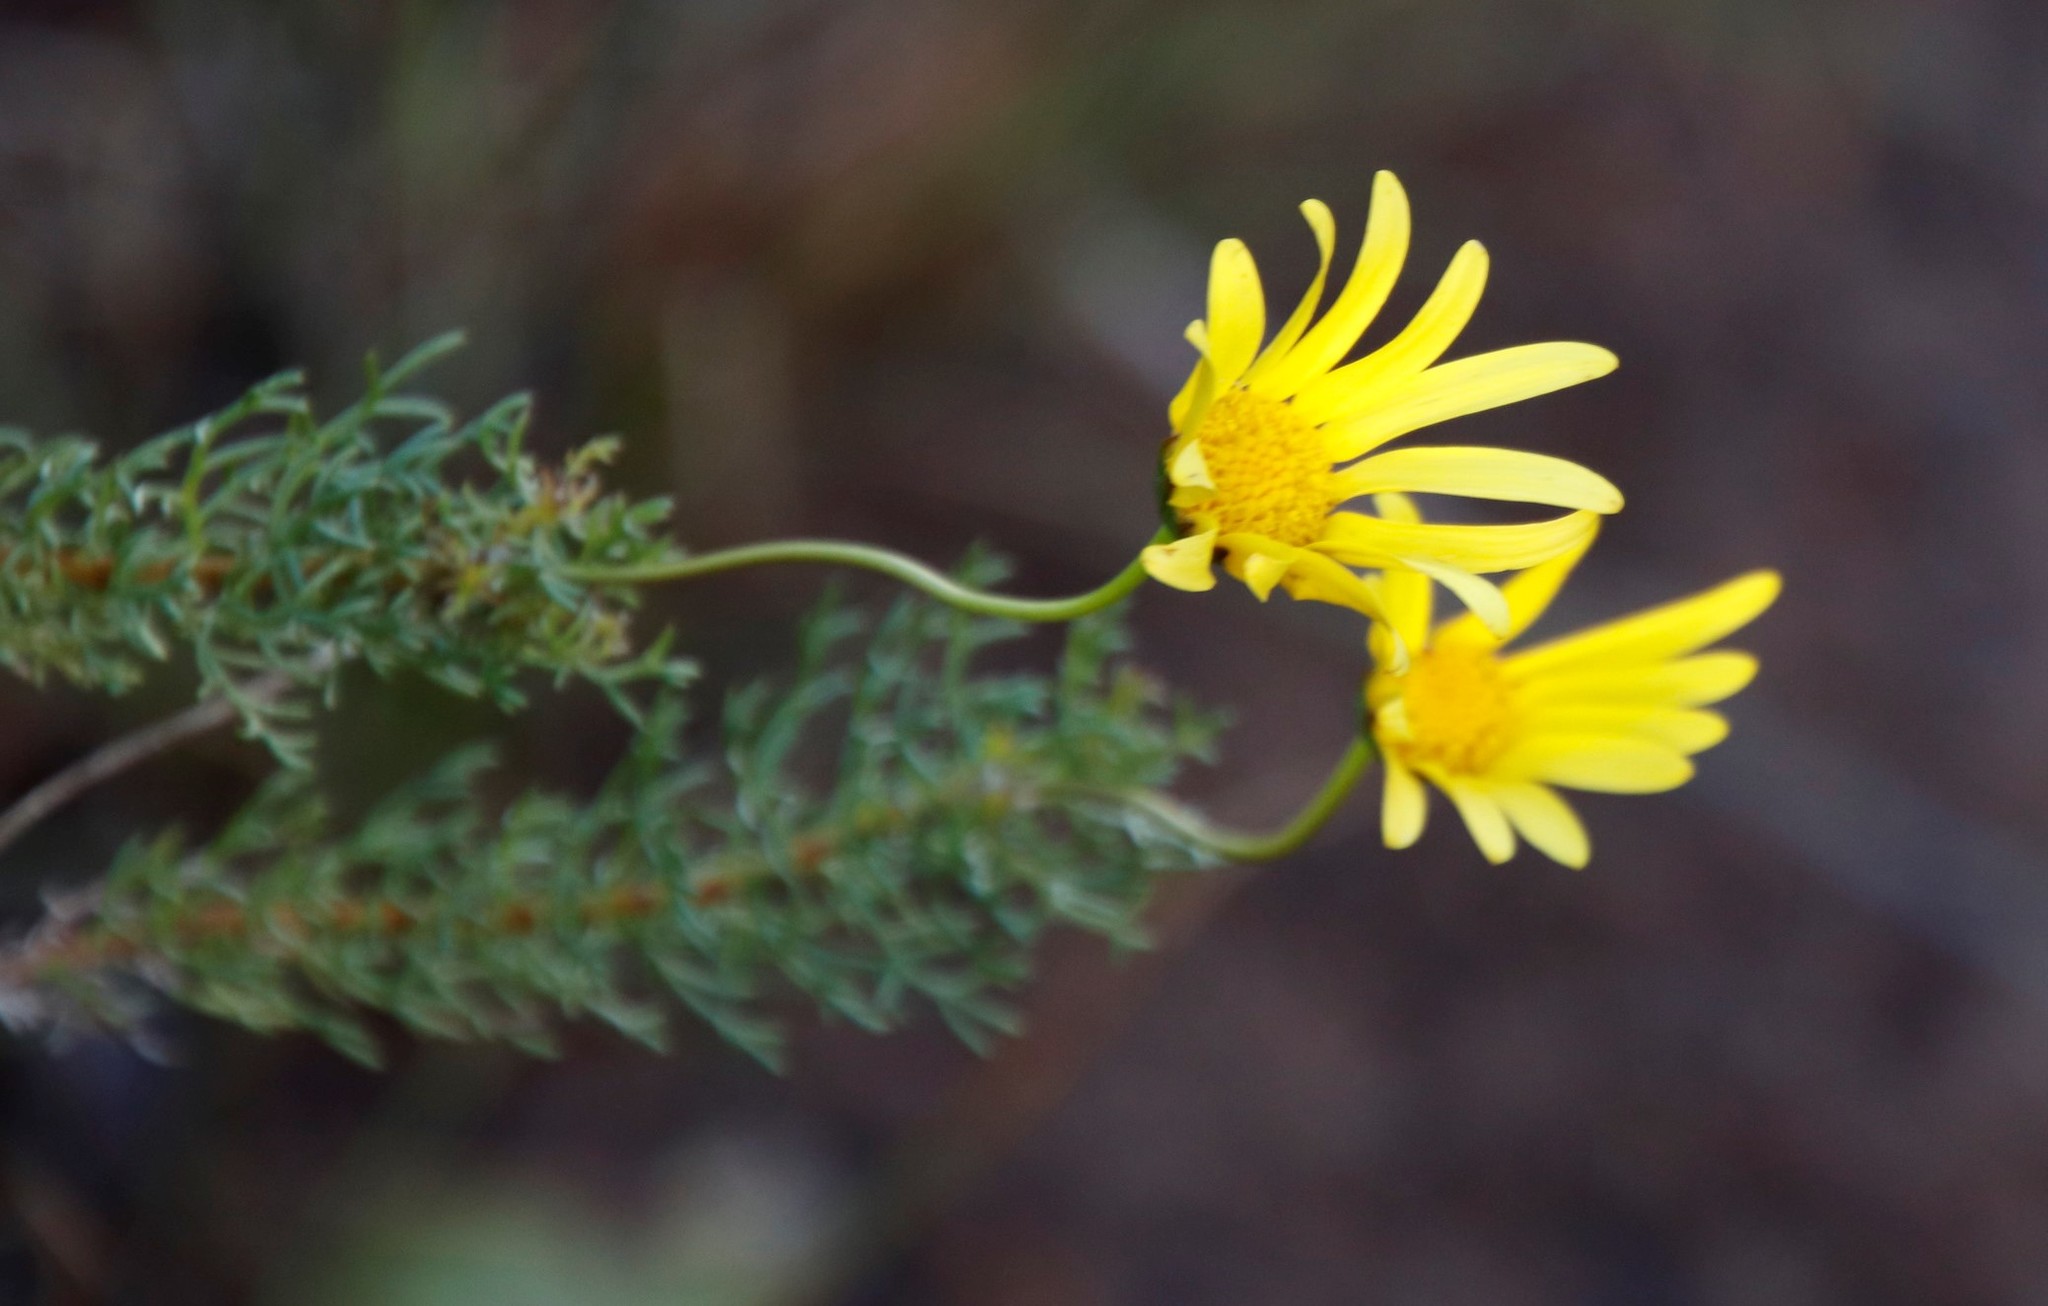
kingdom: Plantae
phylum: Tracheophyta
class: Magnoliopsida
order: Asterales
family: Asteraceae
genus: Euryops
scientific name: Euryops abrotanifolius
